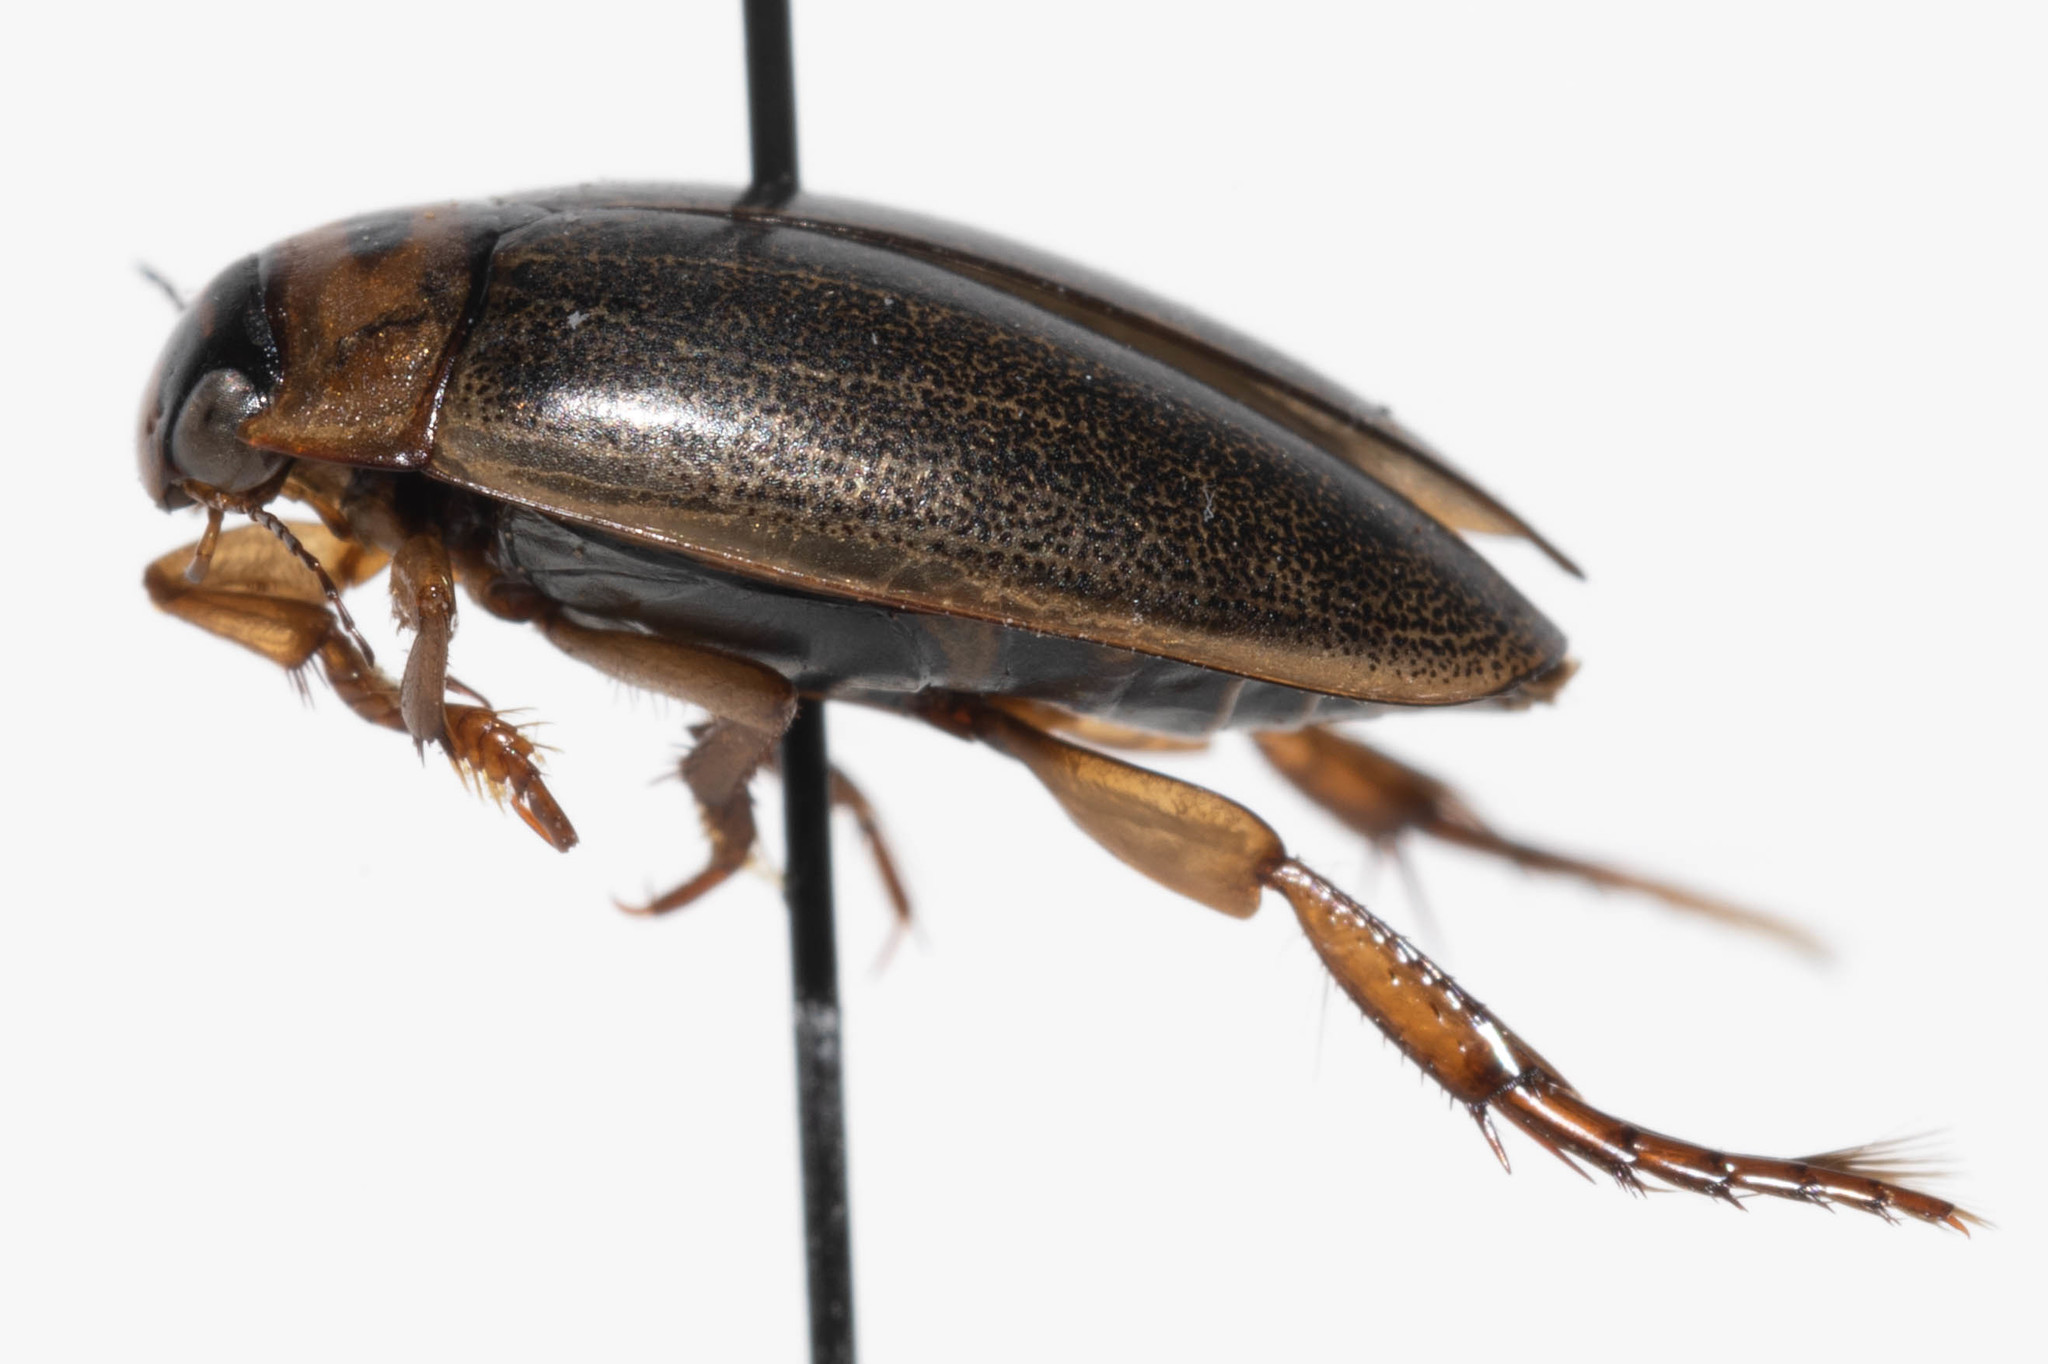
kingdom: Animalia
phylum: Arthropoda
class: Insecta
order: Coleoptera
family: Dytiscidae
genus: Rhantus
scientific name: Rhantus sericans
